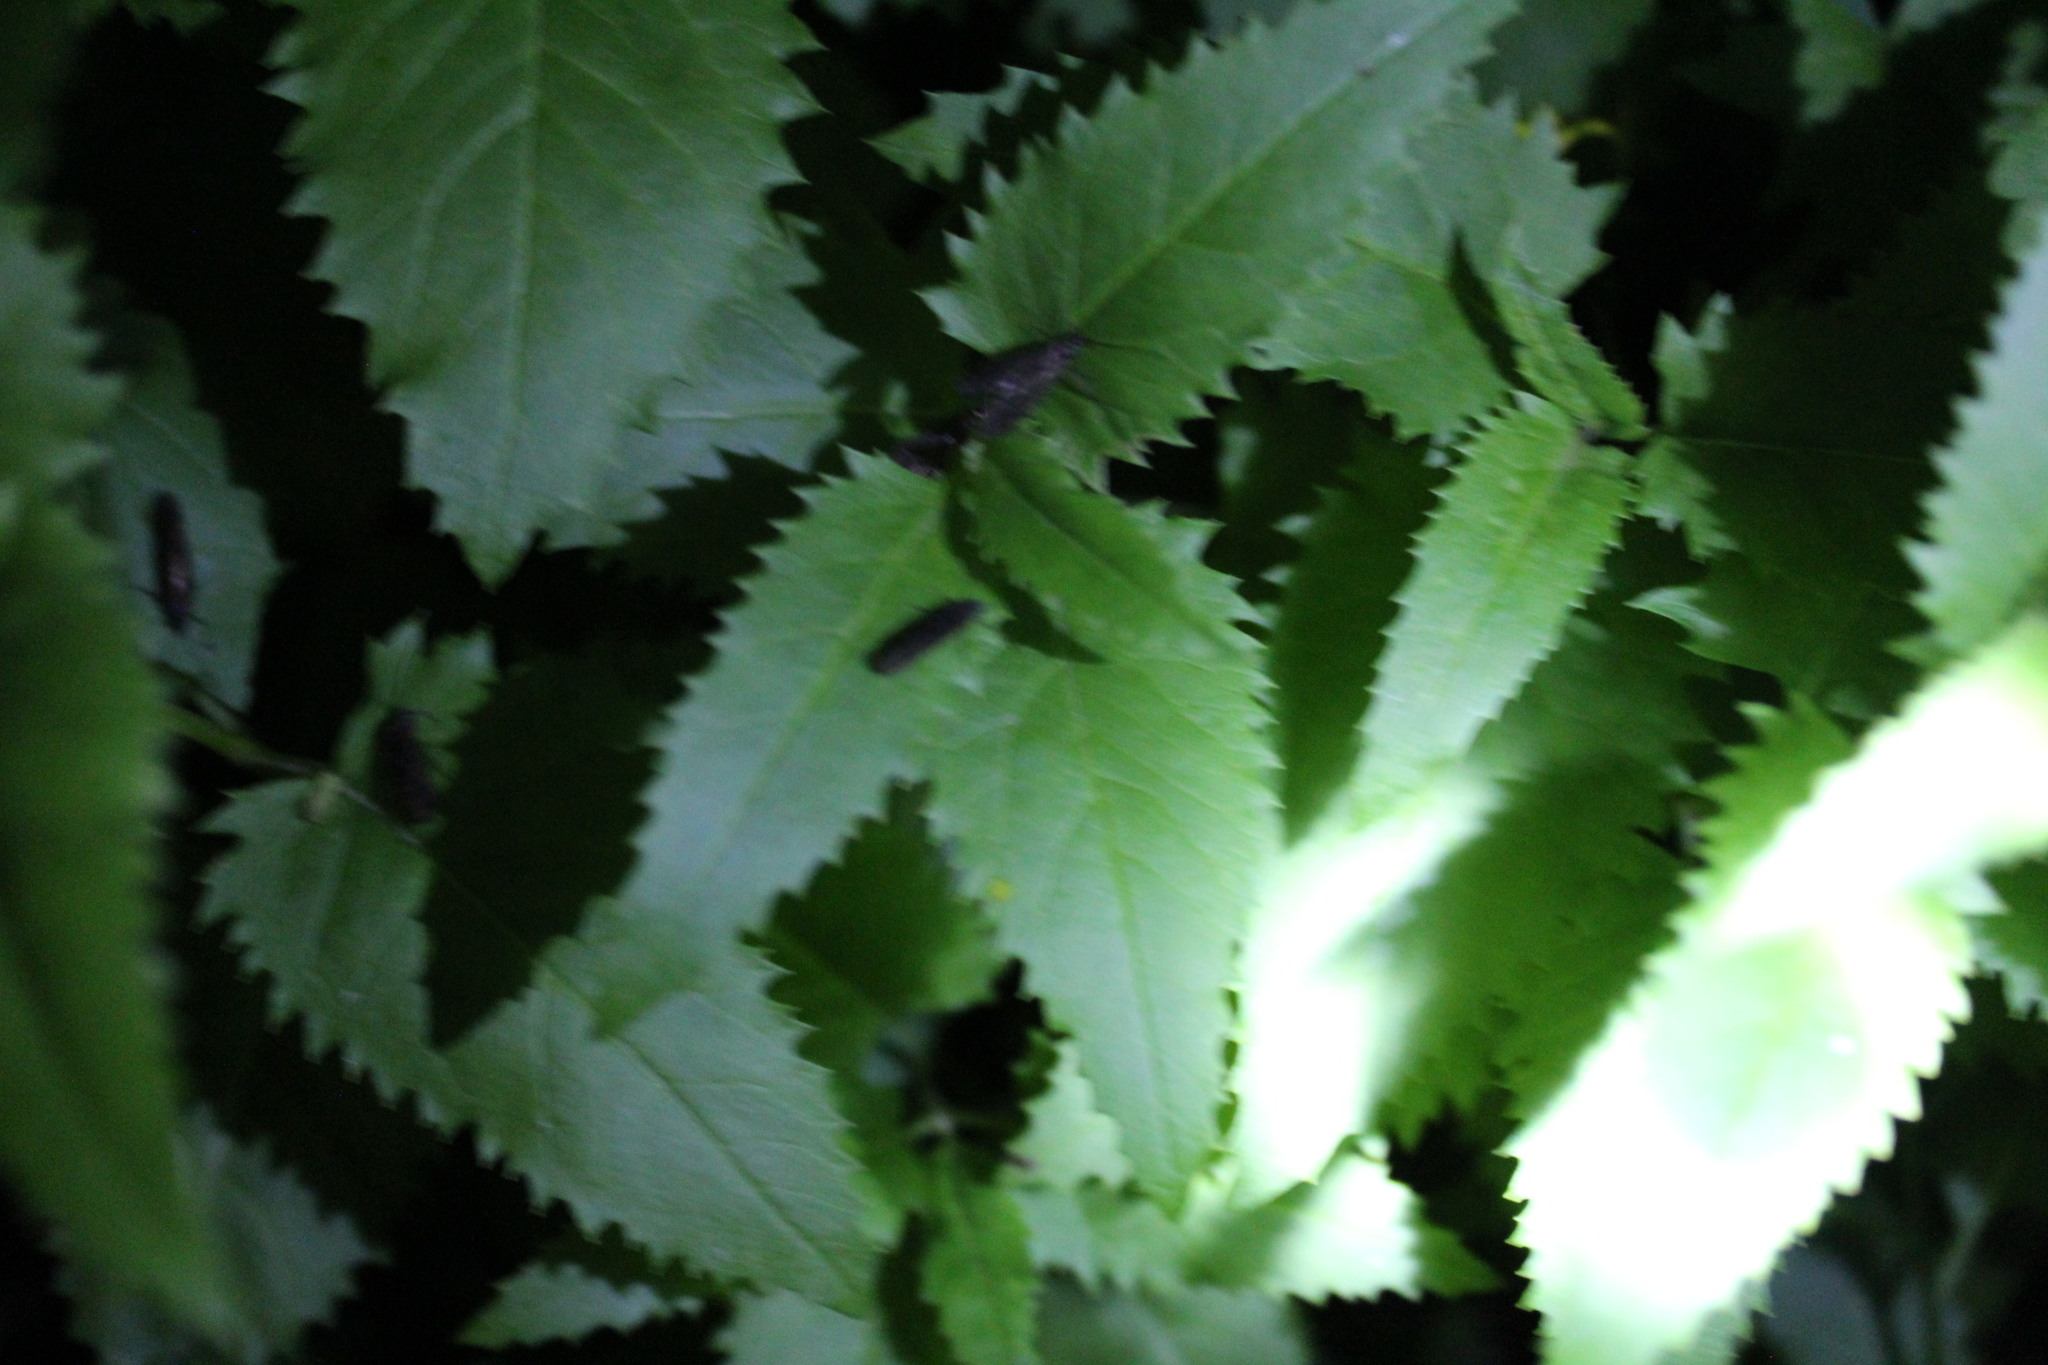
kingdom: Plantae
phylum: Tracheophyta
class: Magnoliopsida
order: Asterales
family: Asteraceae
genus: Senecio
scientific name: Senecio triangularis
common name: Arrowleaf butterweed
